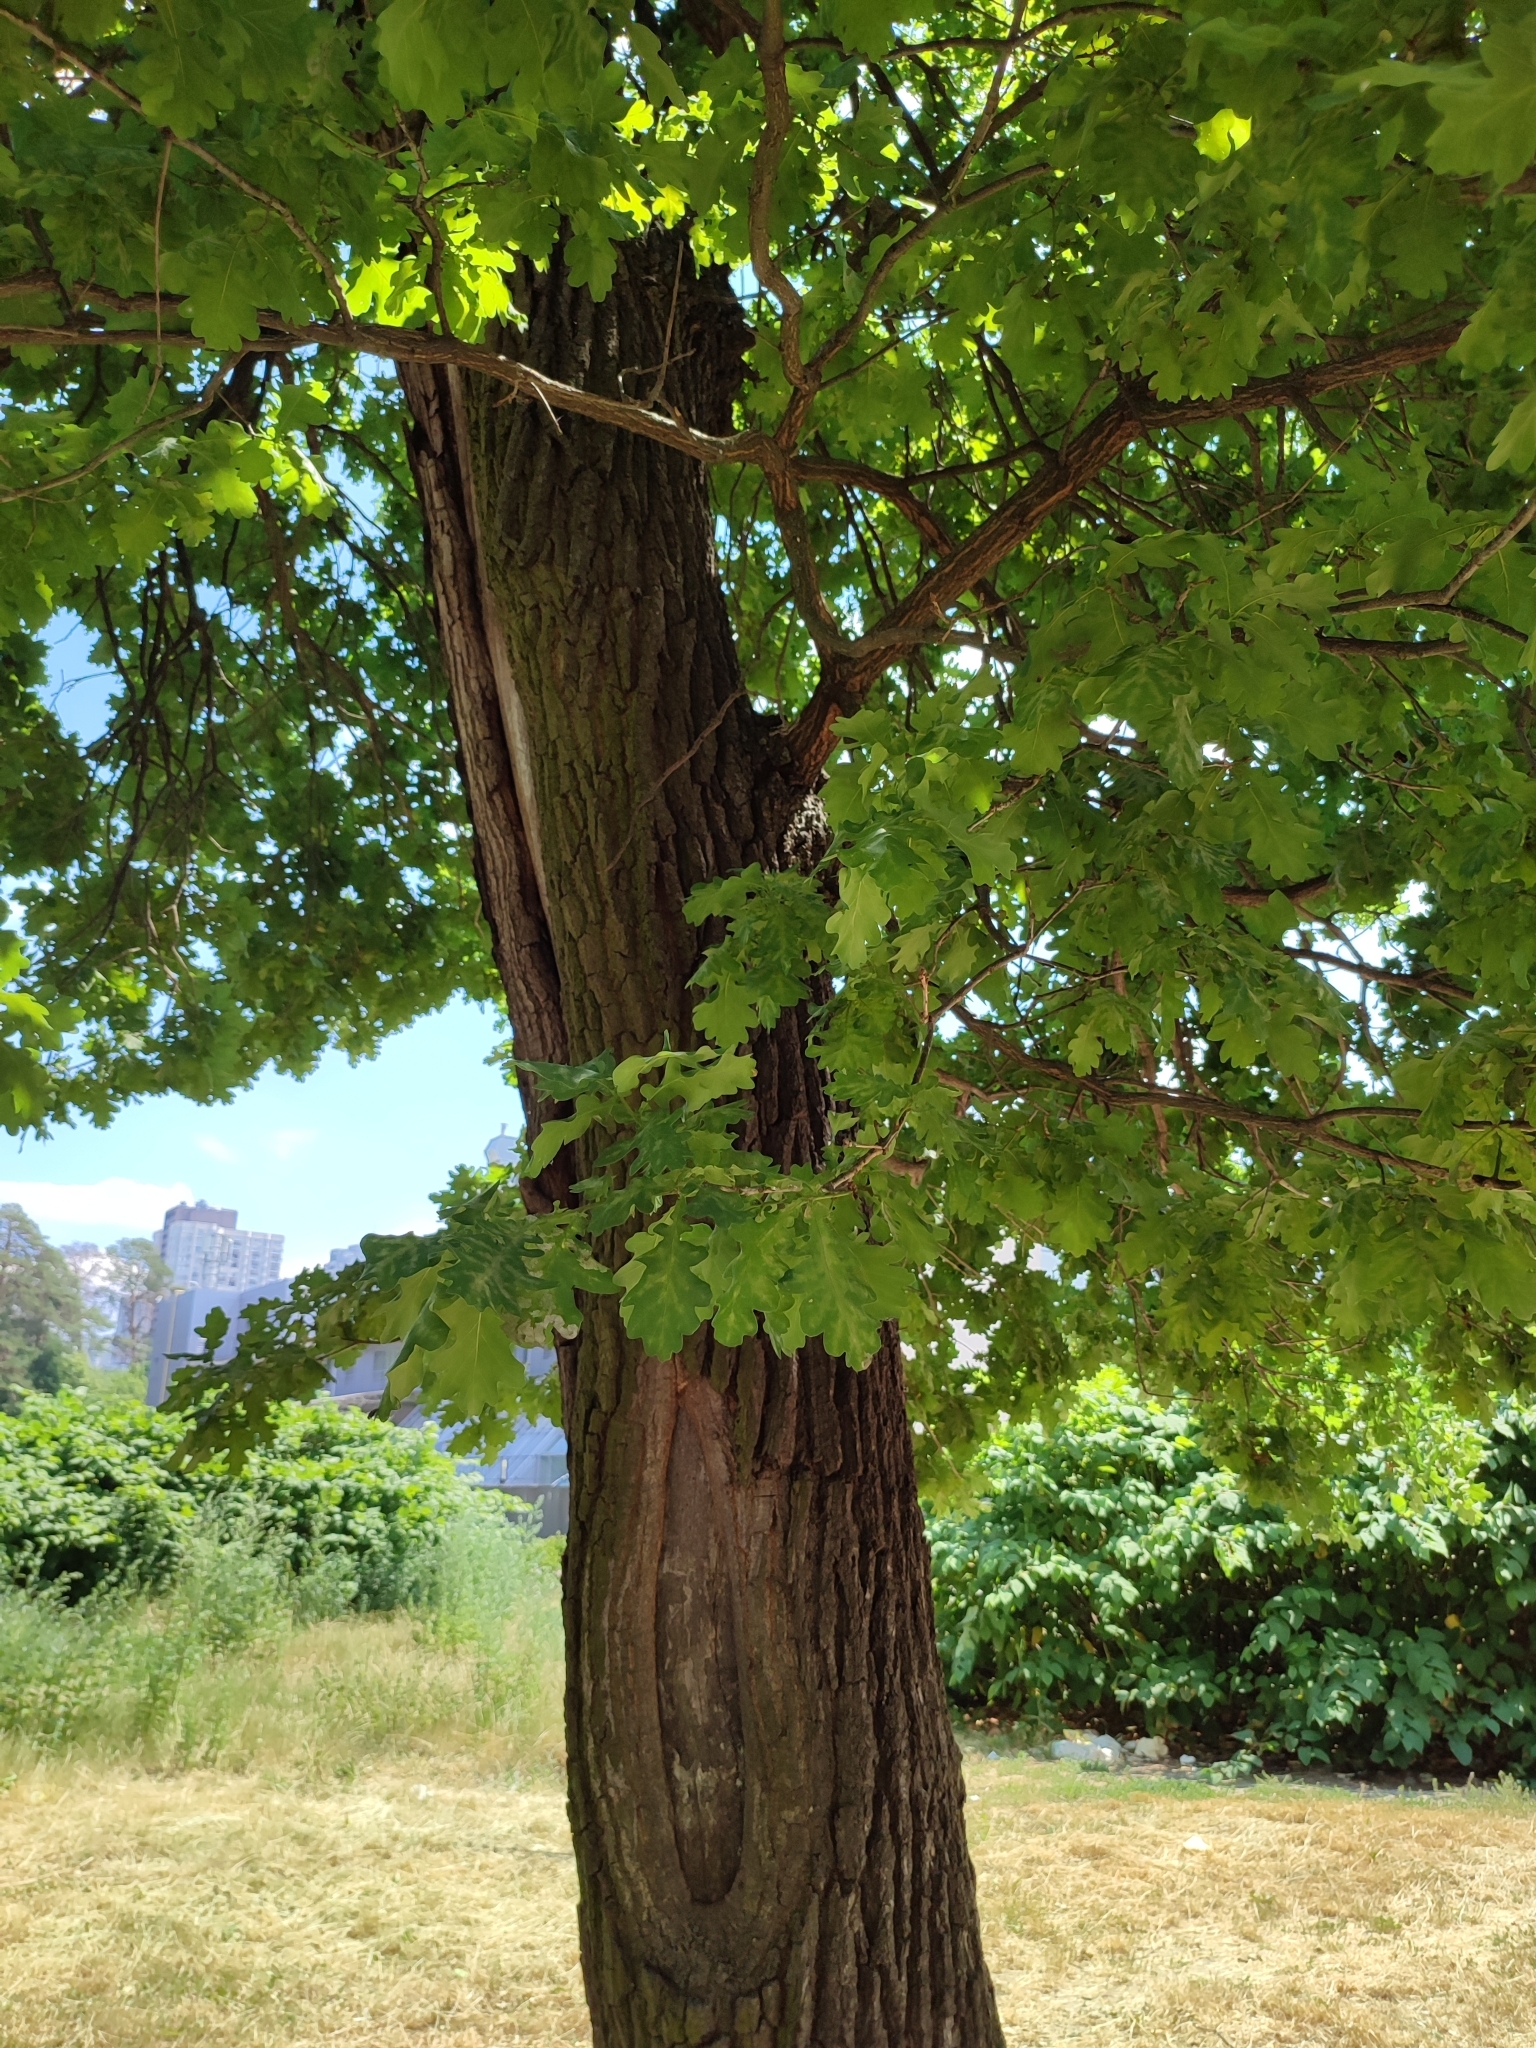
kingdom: Plantae
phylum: Tracheophyta
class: Magnoliopsida
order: Fagales
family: Fagaceae
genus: Quercus
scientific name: Quercus robur
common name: Pedunculate oak
